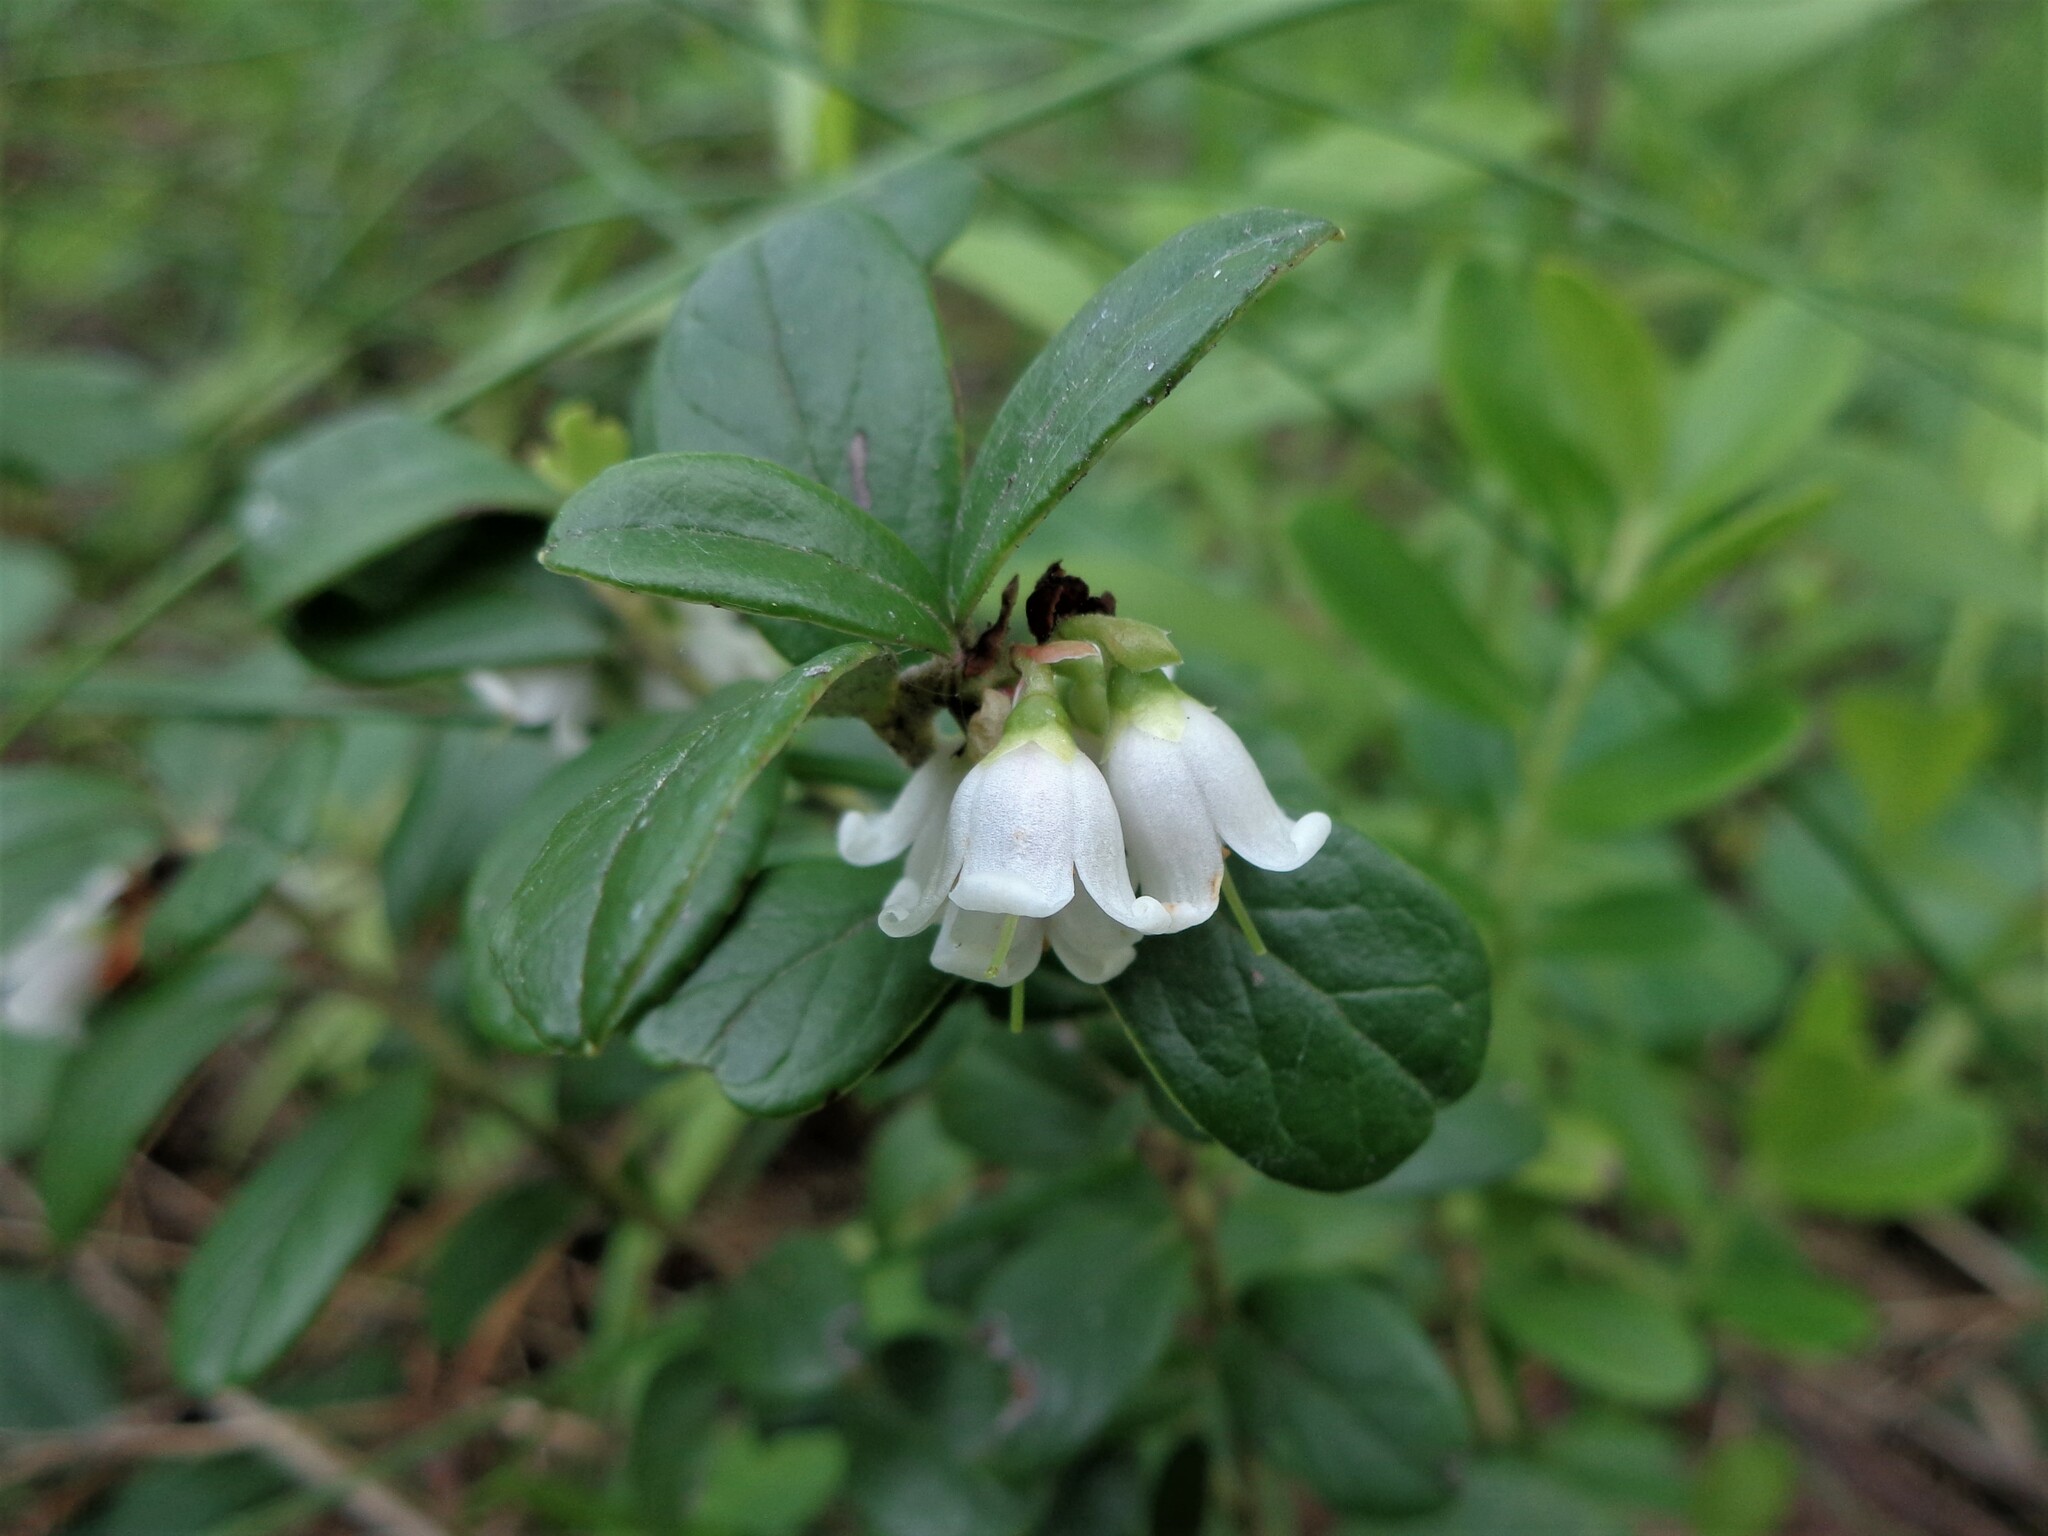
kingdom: Plantae
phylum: Tracheophyta
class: Magnoliopsida
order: Ericales
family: Ericaceae
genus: Vaccinium
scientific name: Vaccinium vitis-idaea
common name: Cowberry
